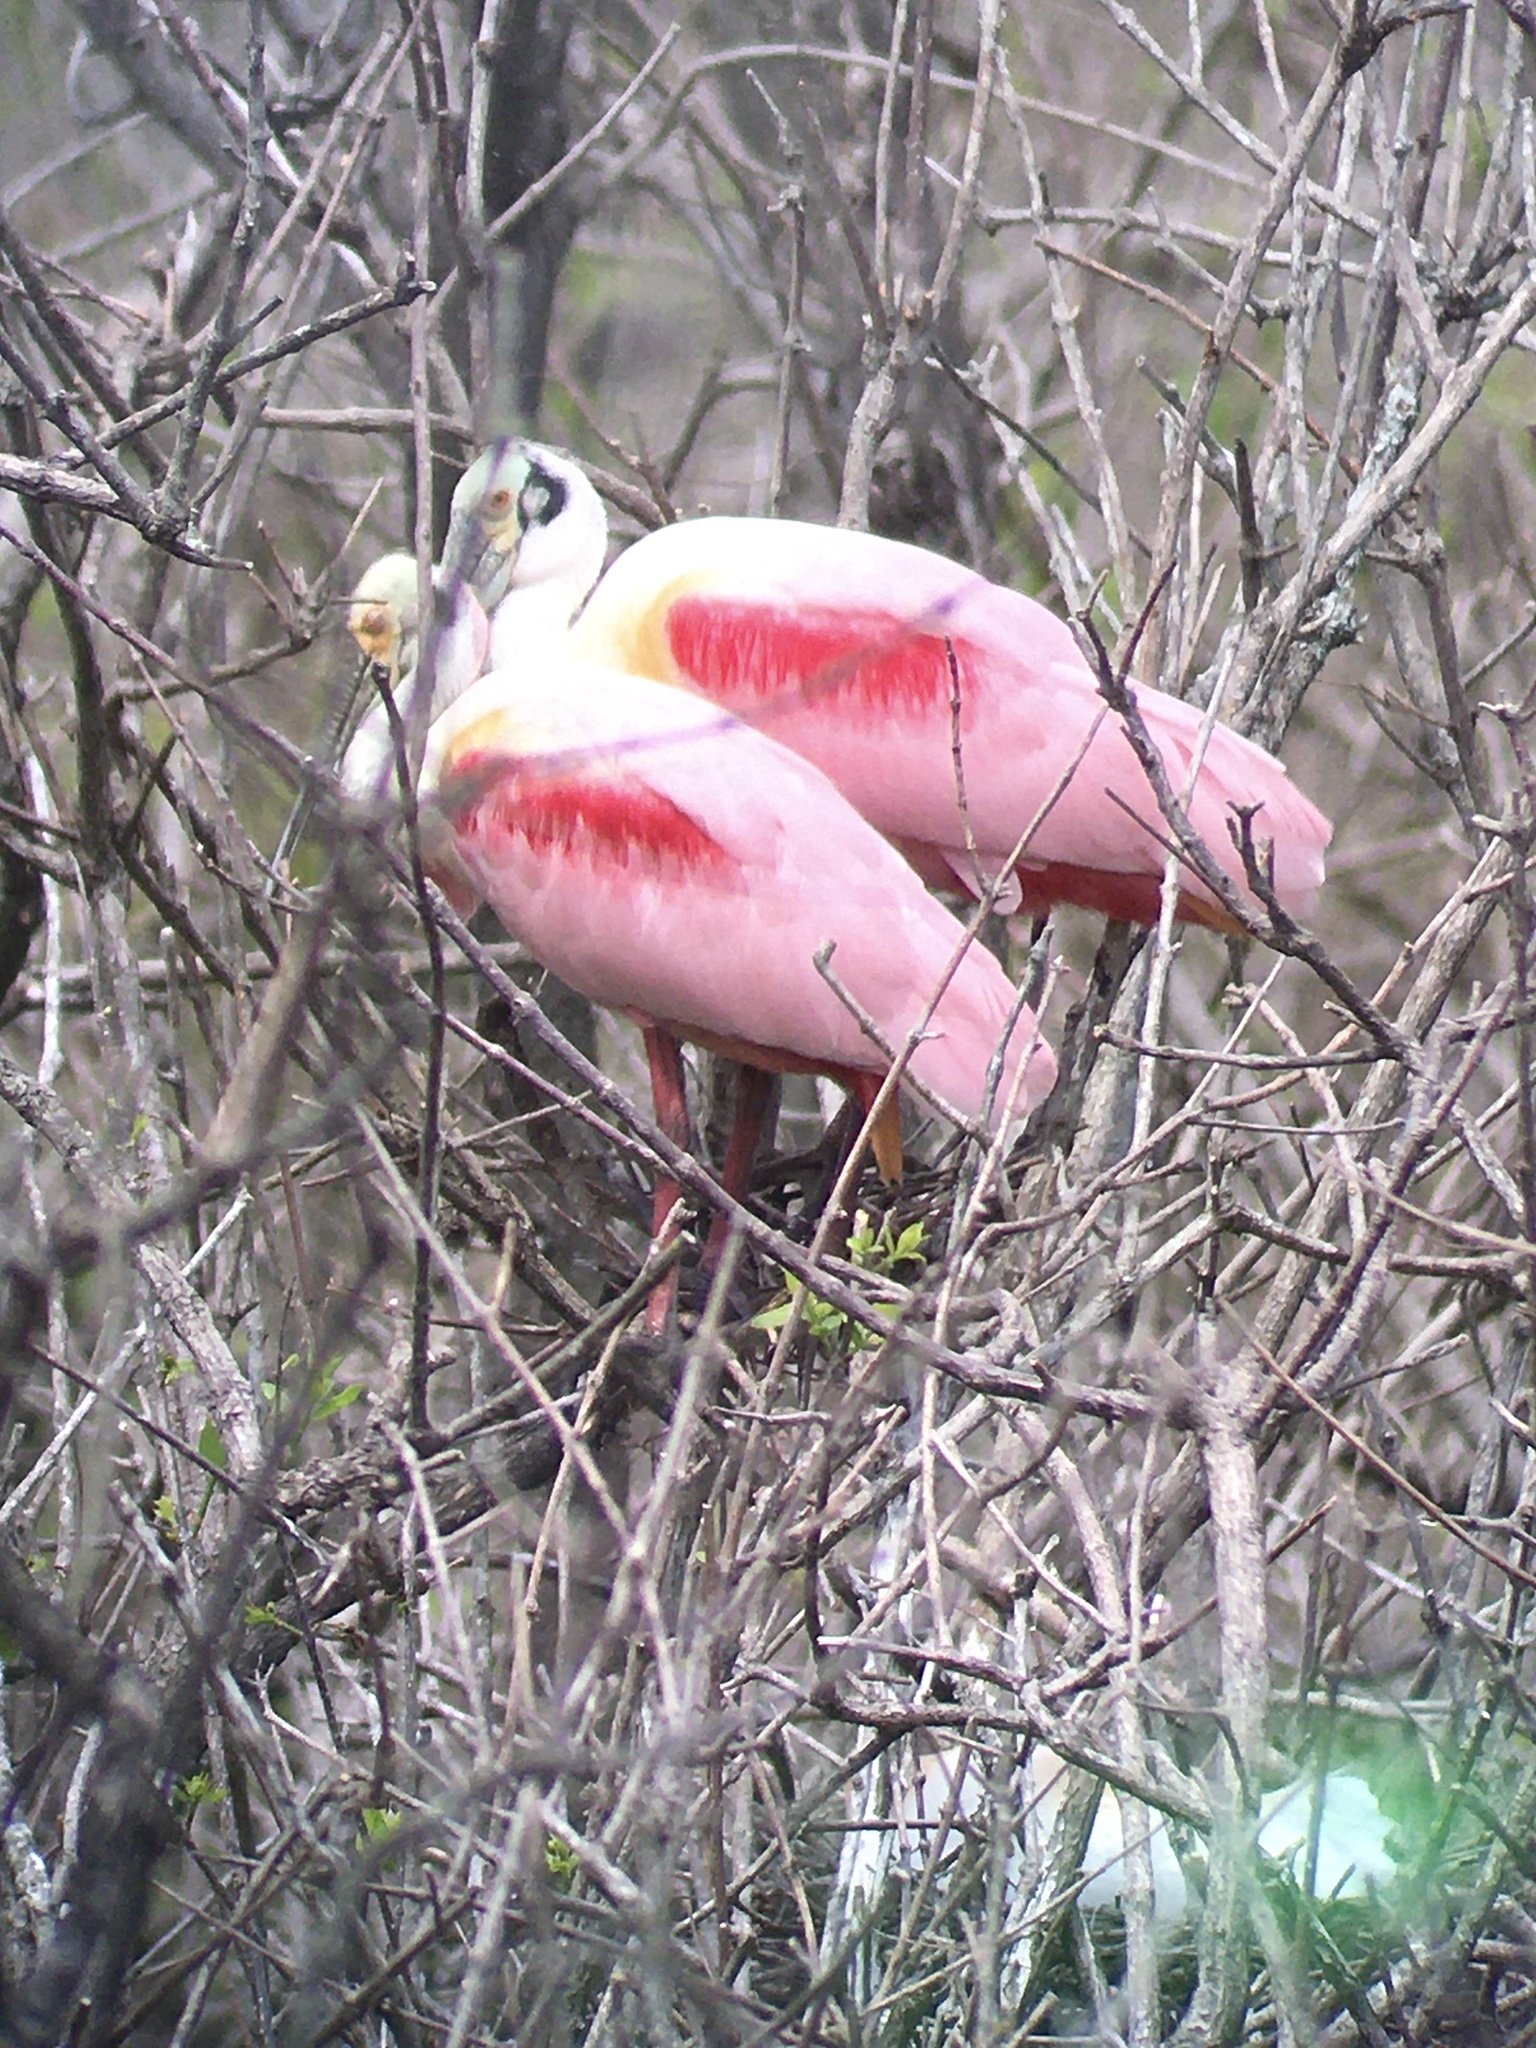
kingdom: Animalia
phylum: Chordata
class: Aves
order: Pelecaniformes
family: Threskiornithidae
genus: Platalea
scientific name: Platalea ajaja
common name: Roseate spoonbill
